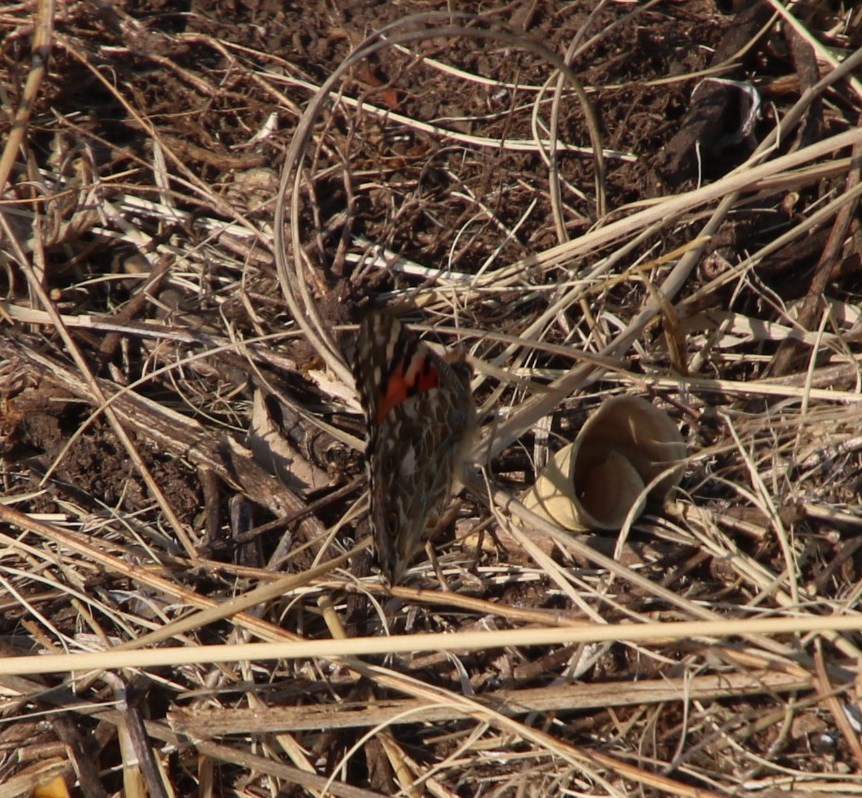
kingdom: Animalia
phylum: Arthropoda
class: Insecta
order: Lepidoptera
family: Nymphalidae
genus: Vanessa
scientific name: Vanessa cardui
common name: Painted lady
